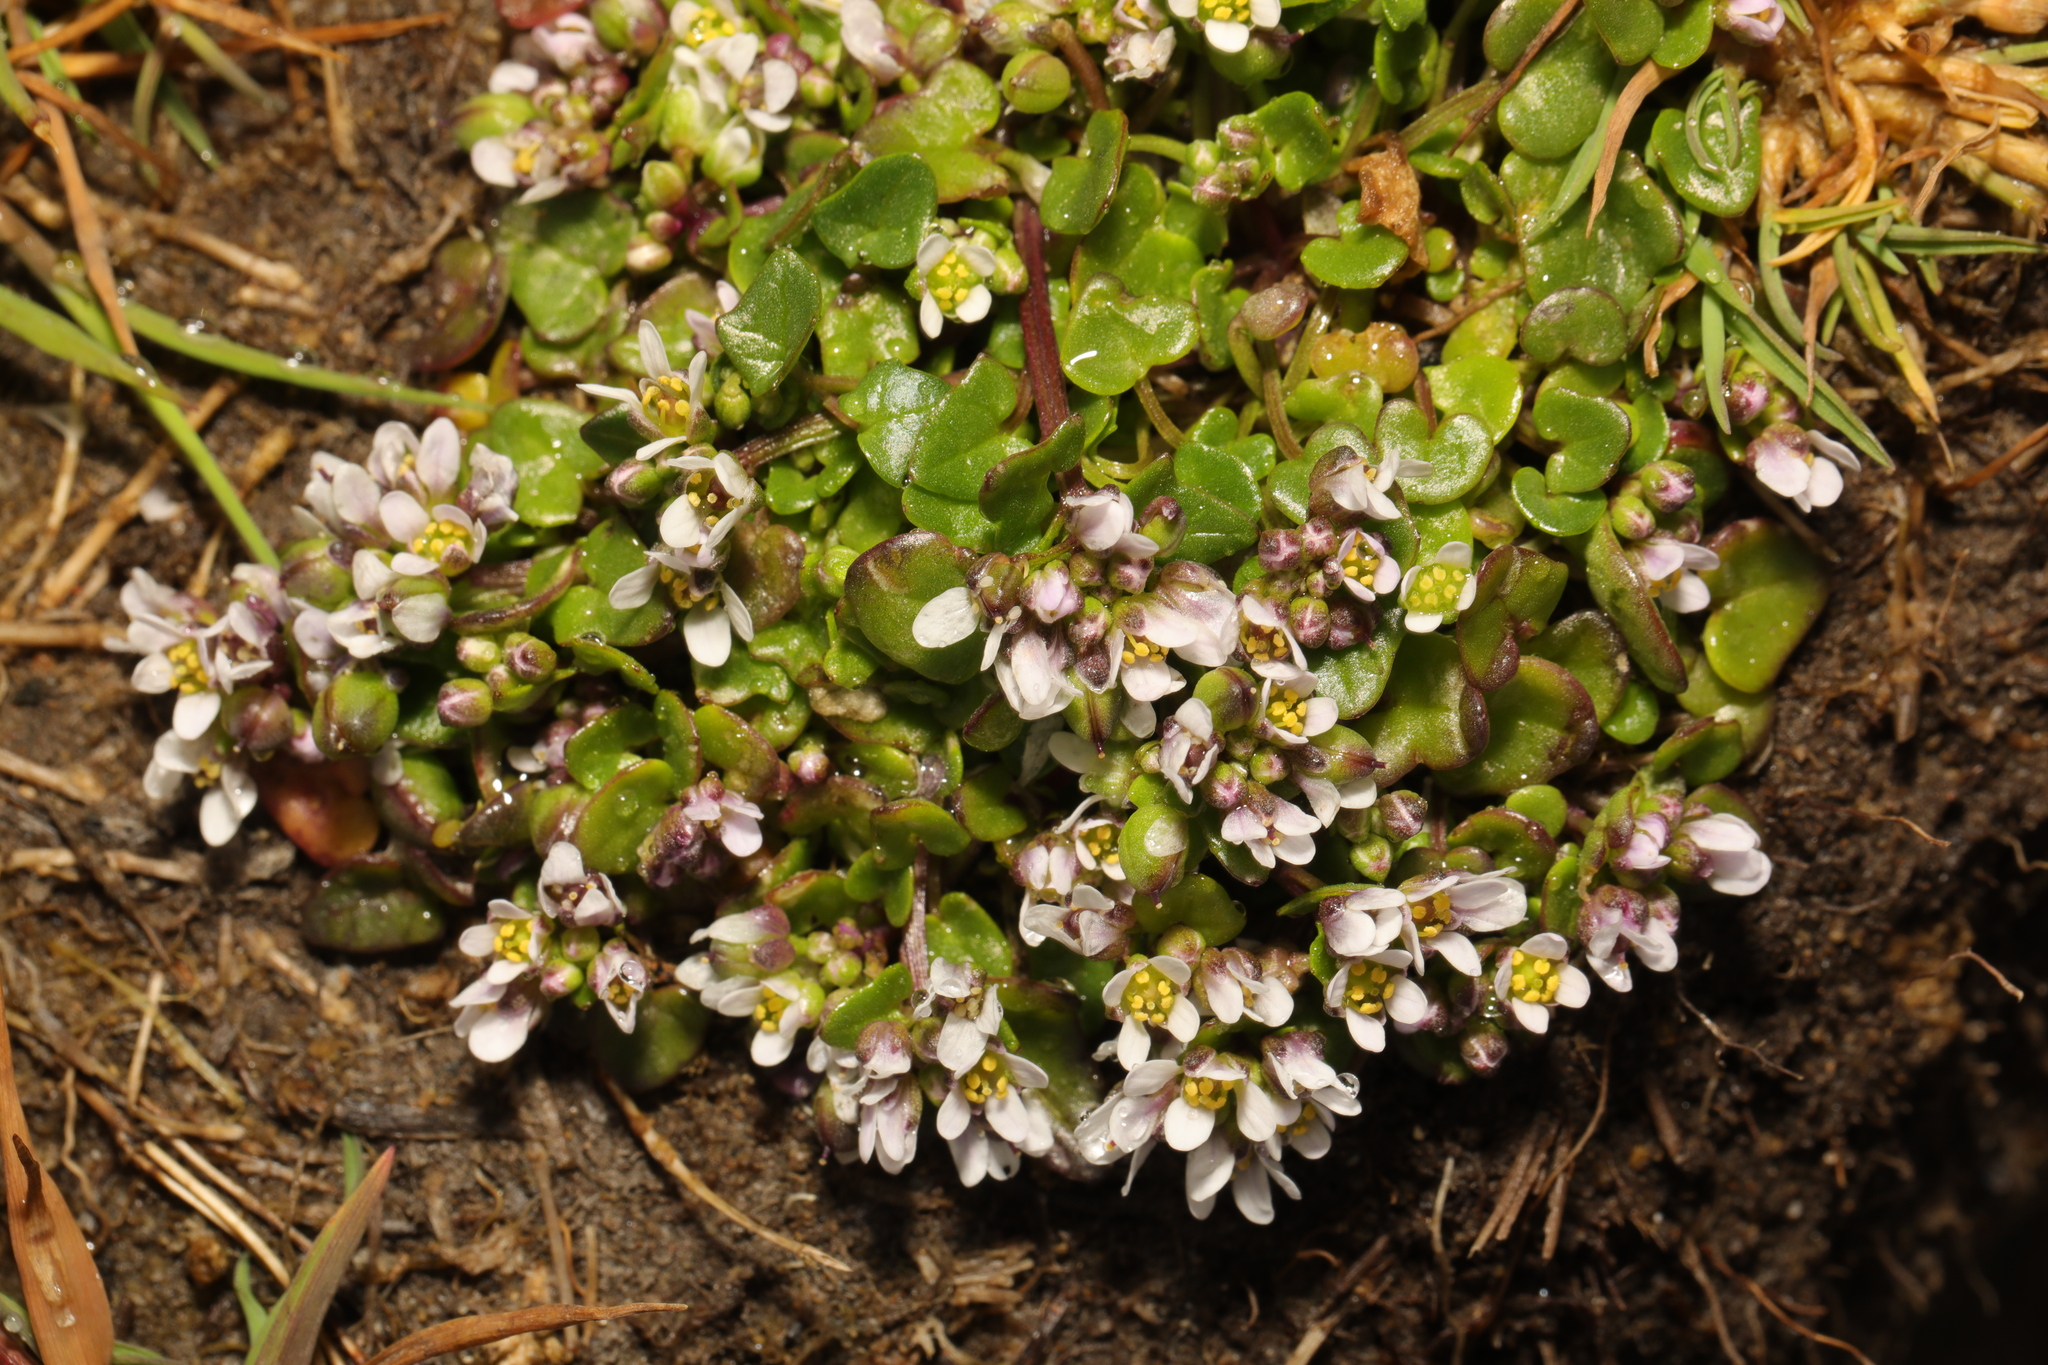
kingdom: Plantae
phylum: Tracheophyta
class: Magnoliopsida
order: Brassicales
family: Brassicaceae
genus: Cochlearia
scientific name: Cochlearia danica
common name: Early scurvygrass
